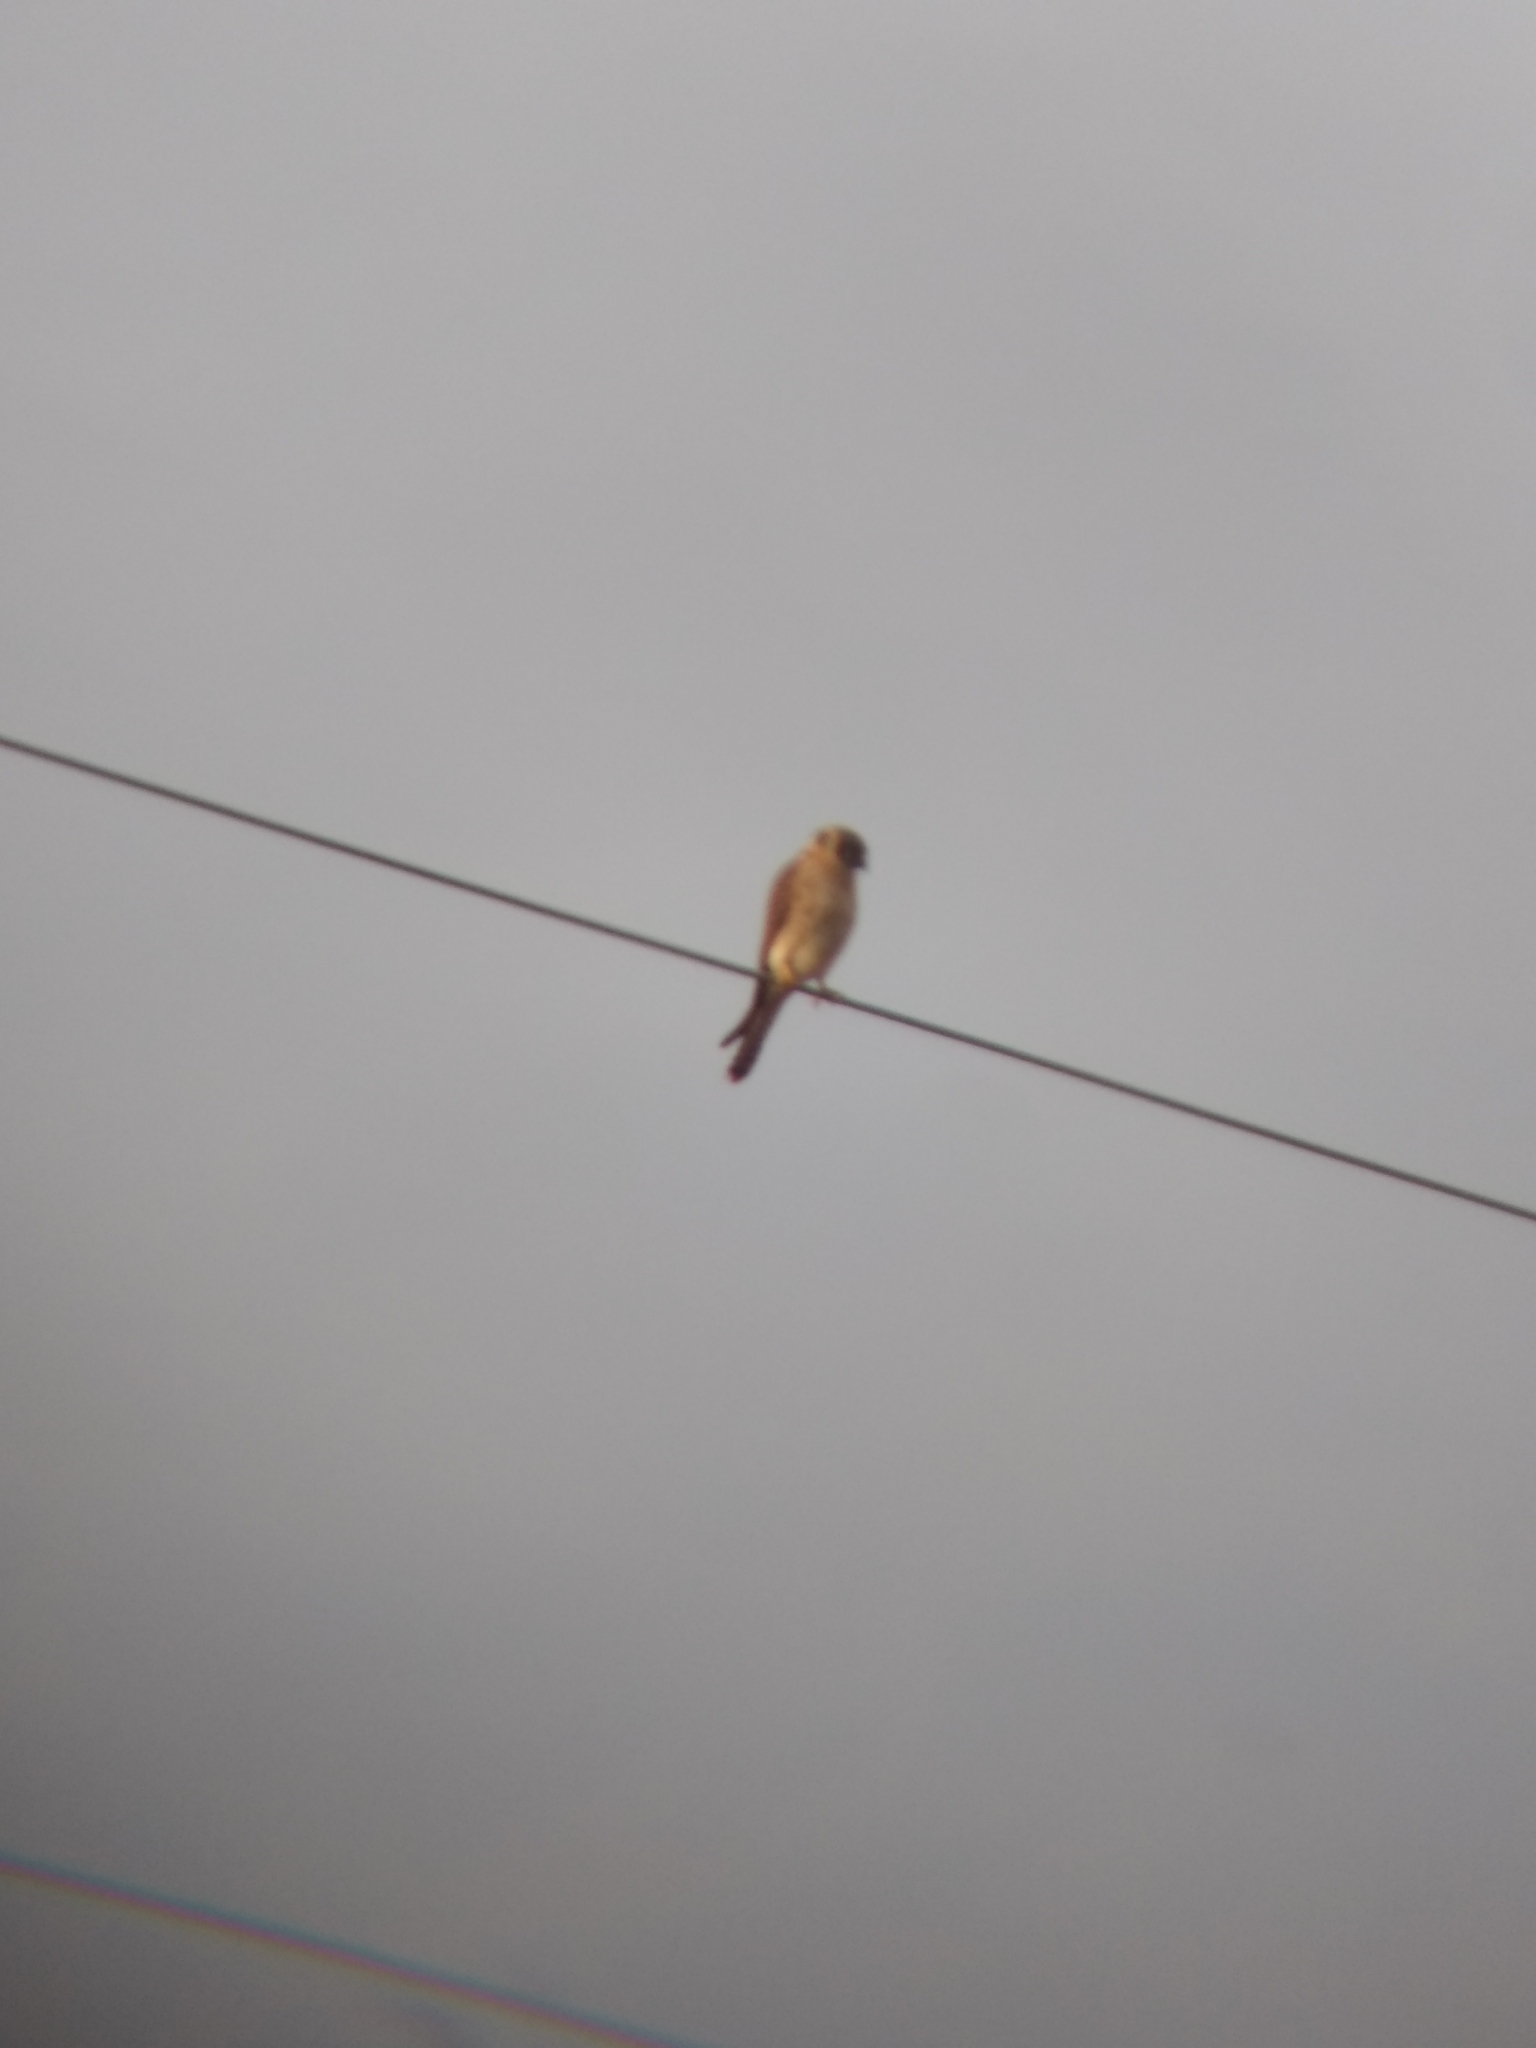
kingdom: Animalia
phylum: Chordata
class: Aves
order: Falconiformes
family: Falconidae
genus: Falco
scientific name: Falco sparverius
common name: American kestrel
